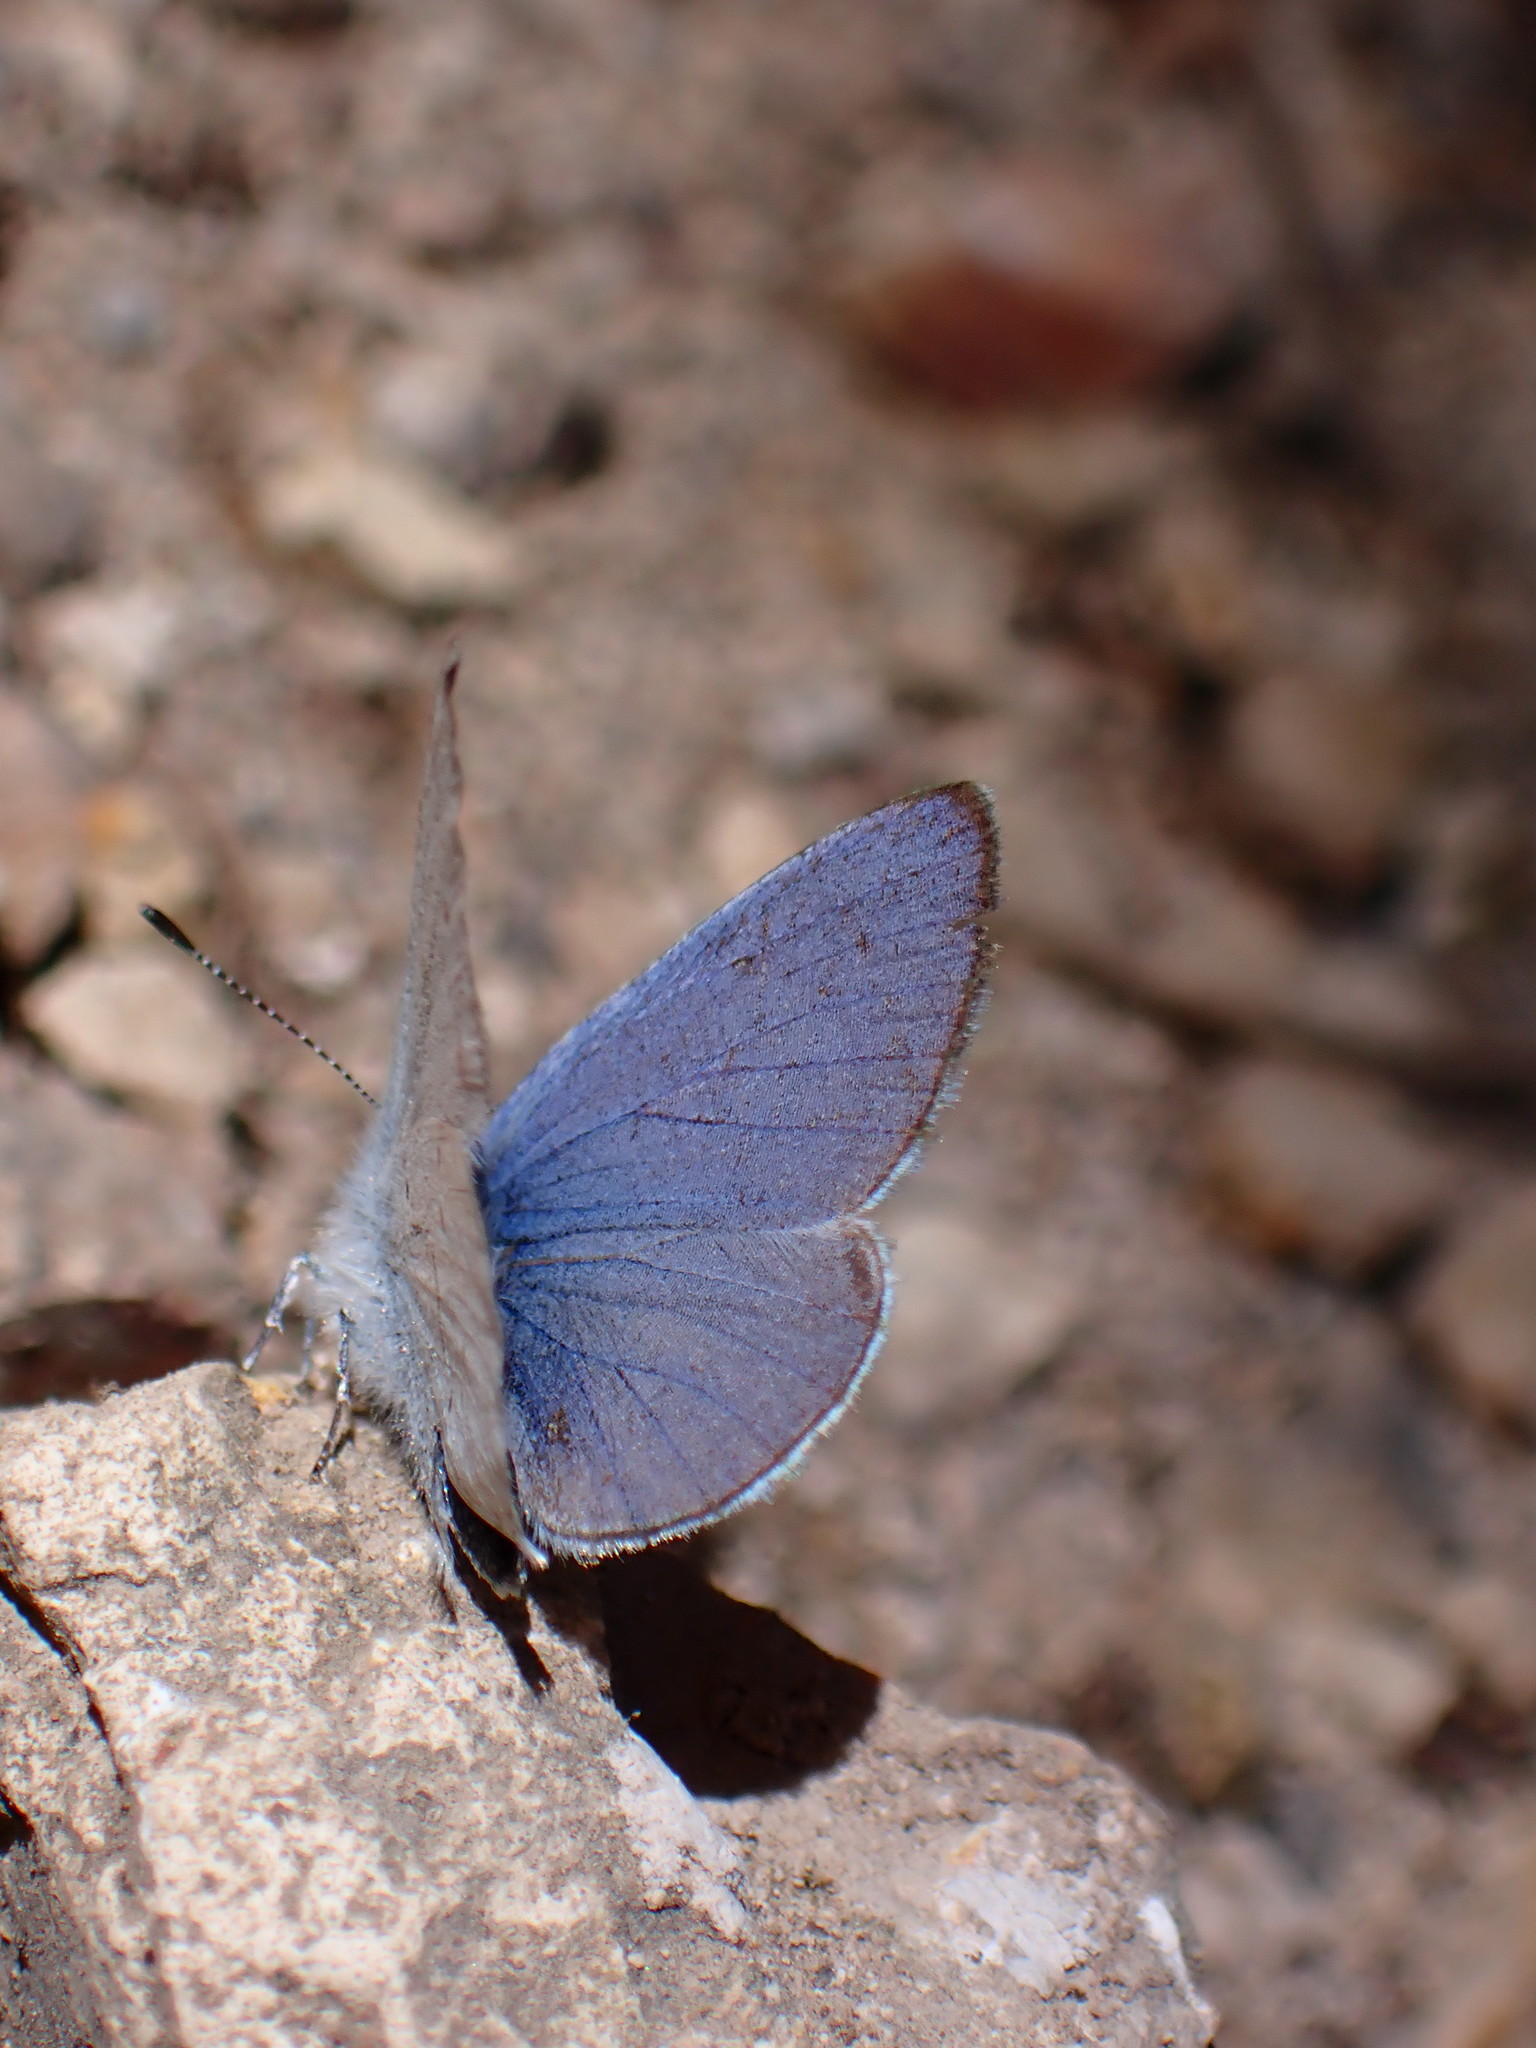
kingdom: Animalia
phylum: Arthropoda
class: Insecta
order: Lepidoptera
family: Lycaenidae
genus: Celastrina
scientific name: Celastrina ladon
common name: Spring azure
